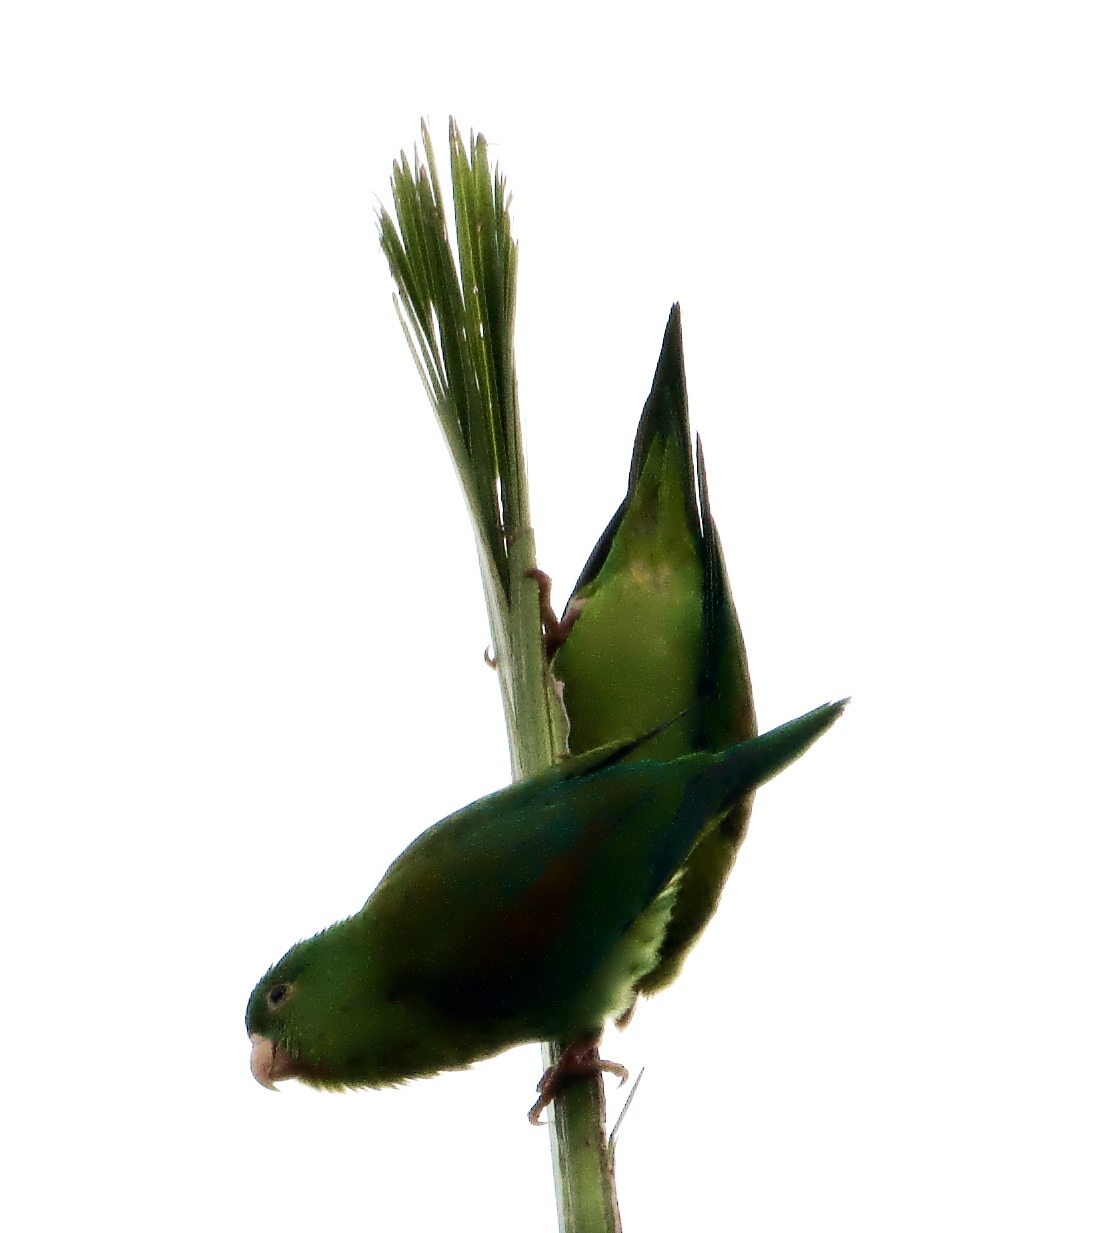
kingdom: Animalia
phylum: Chordata
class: Aves
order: Psittaciformes
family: Psittacidae
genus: Brotogeris
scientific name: Brotogeris jugularis
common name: Orange-chinned parakeet
